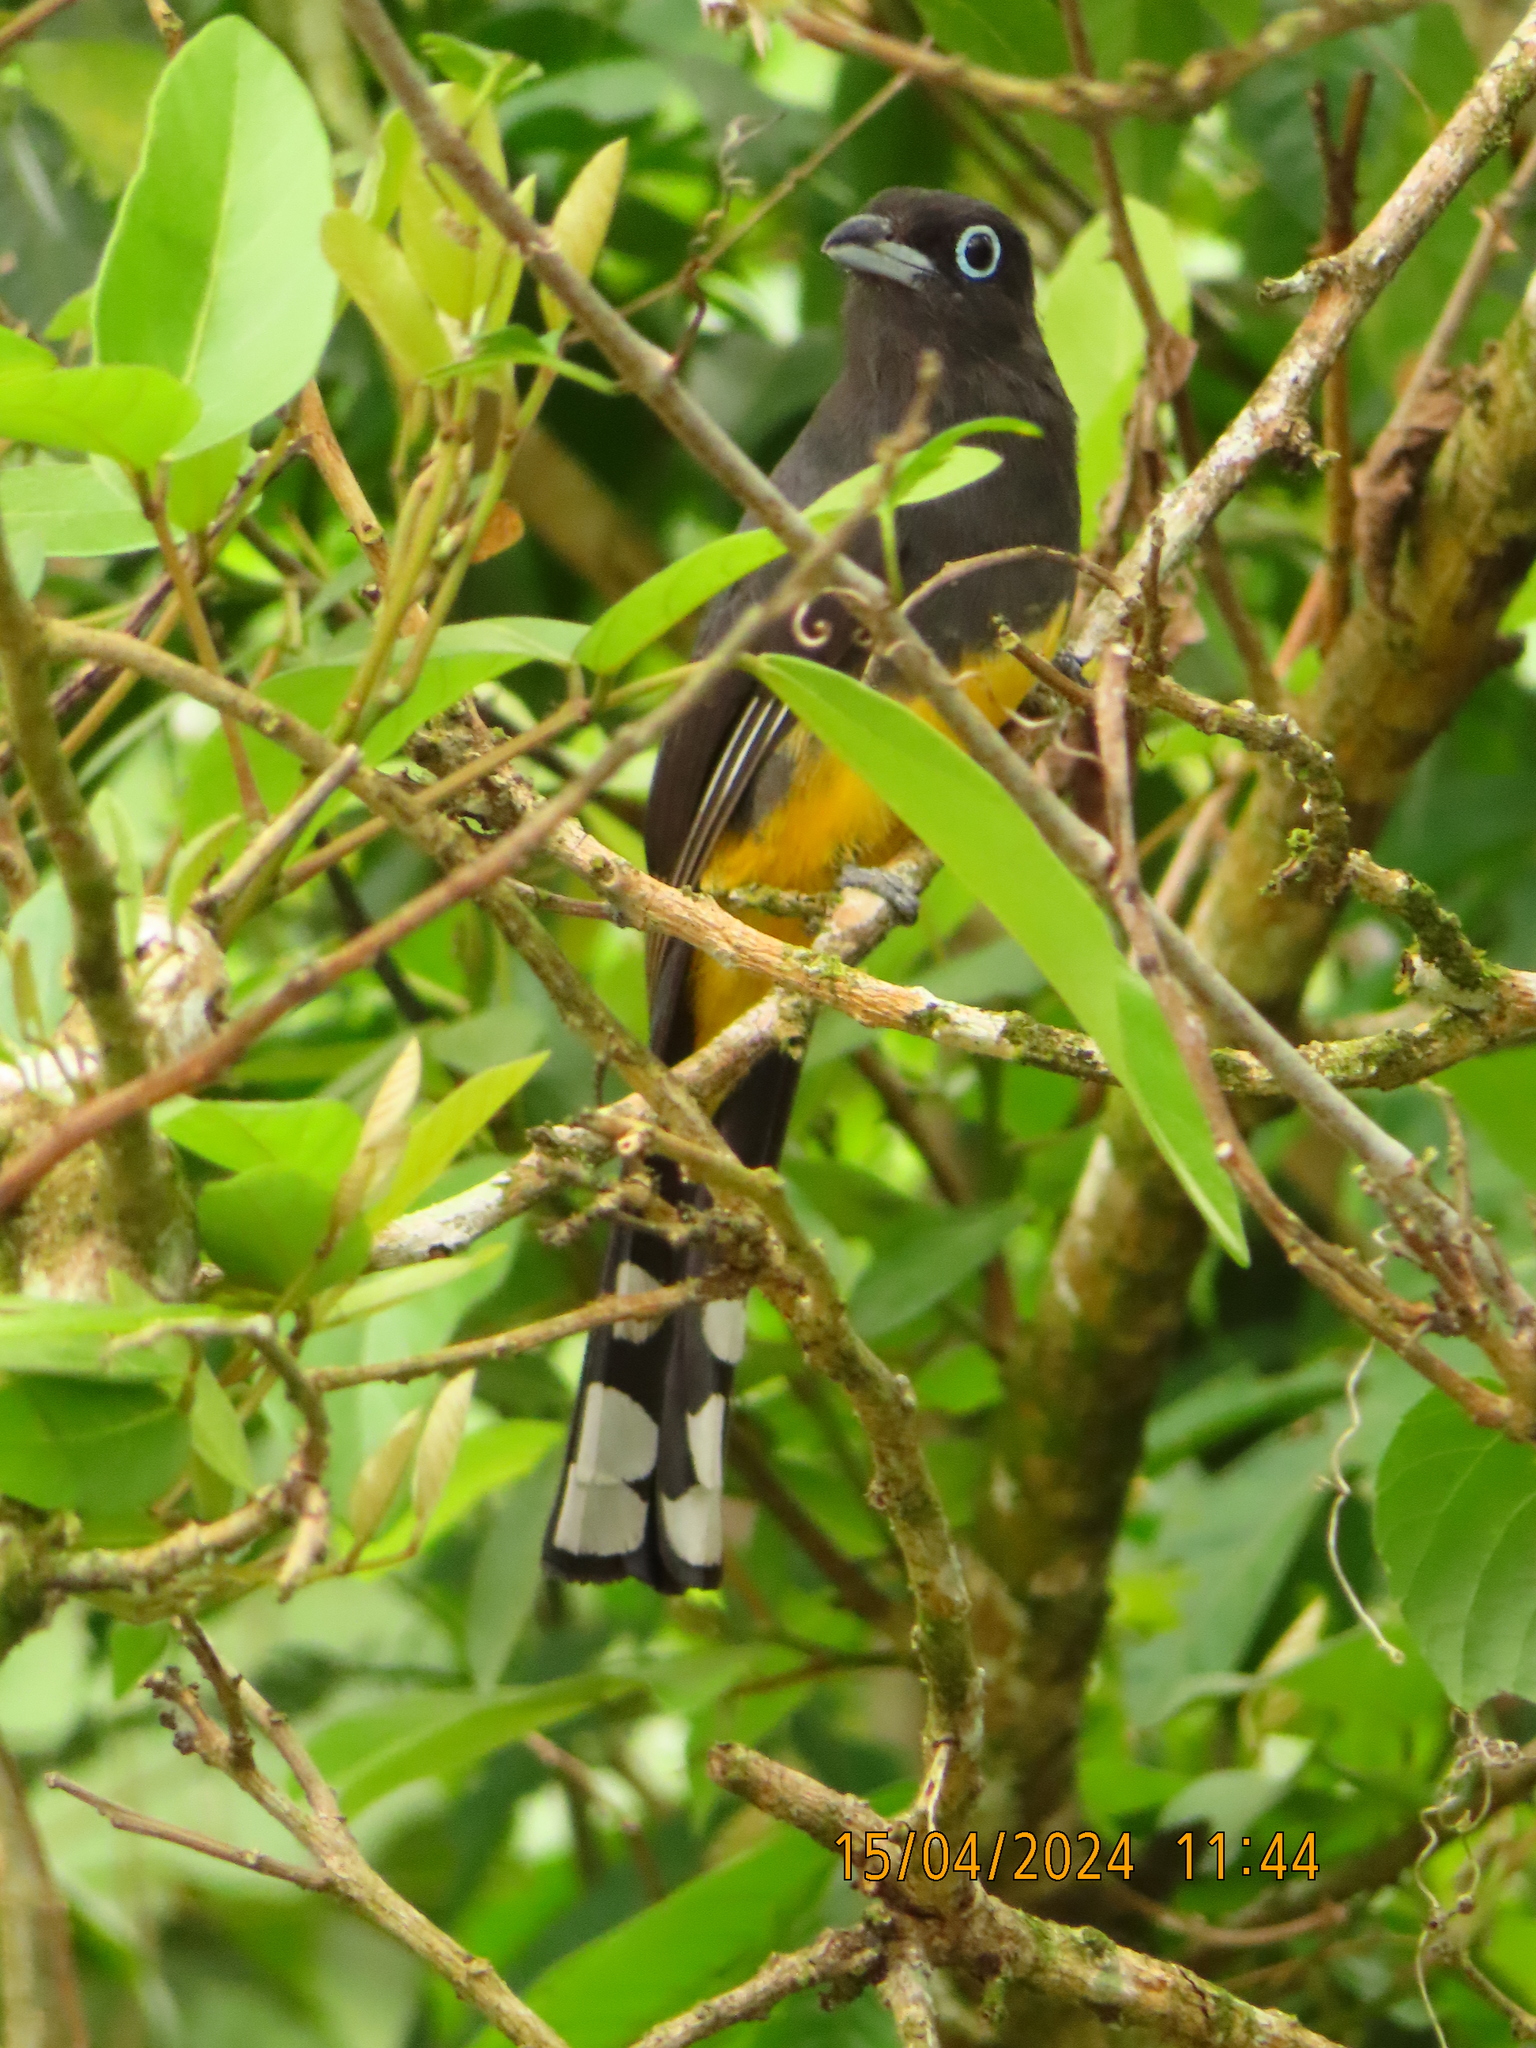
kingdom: Animalia
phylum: Chordata
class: Aves
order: Trogoniformes
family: Trogonidae
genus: Trogon
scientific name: Trogon melanocephalus
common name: Black-headed trogon
